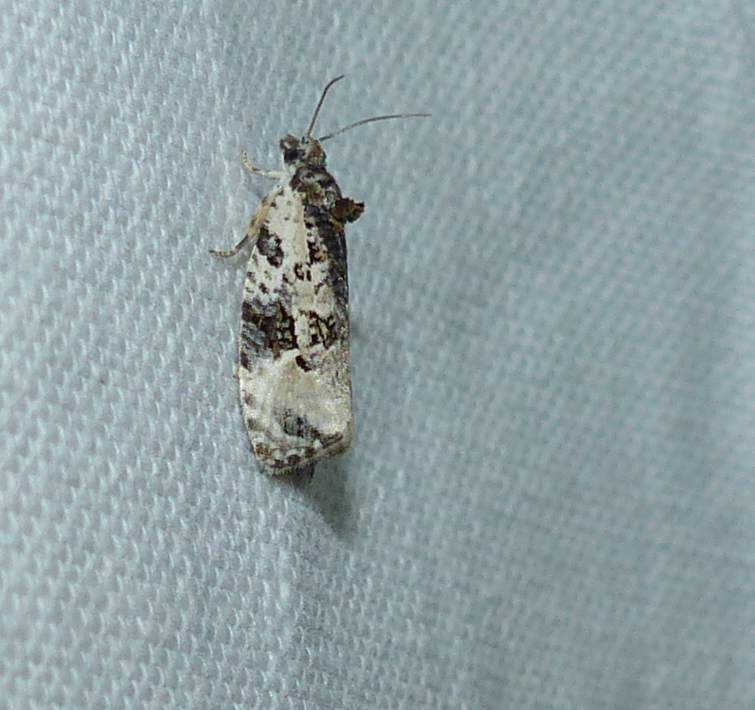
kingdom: Animalia
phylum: Arthropoda
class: Insecta
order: Lepidoptera
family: Tortricidae
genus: Apotomis
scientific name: Apotomis albeolana
